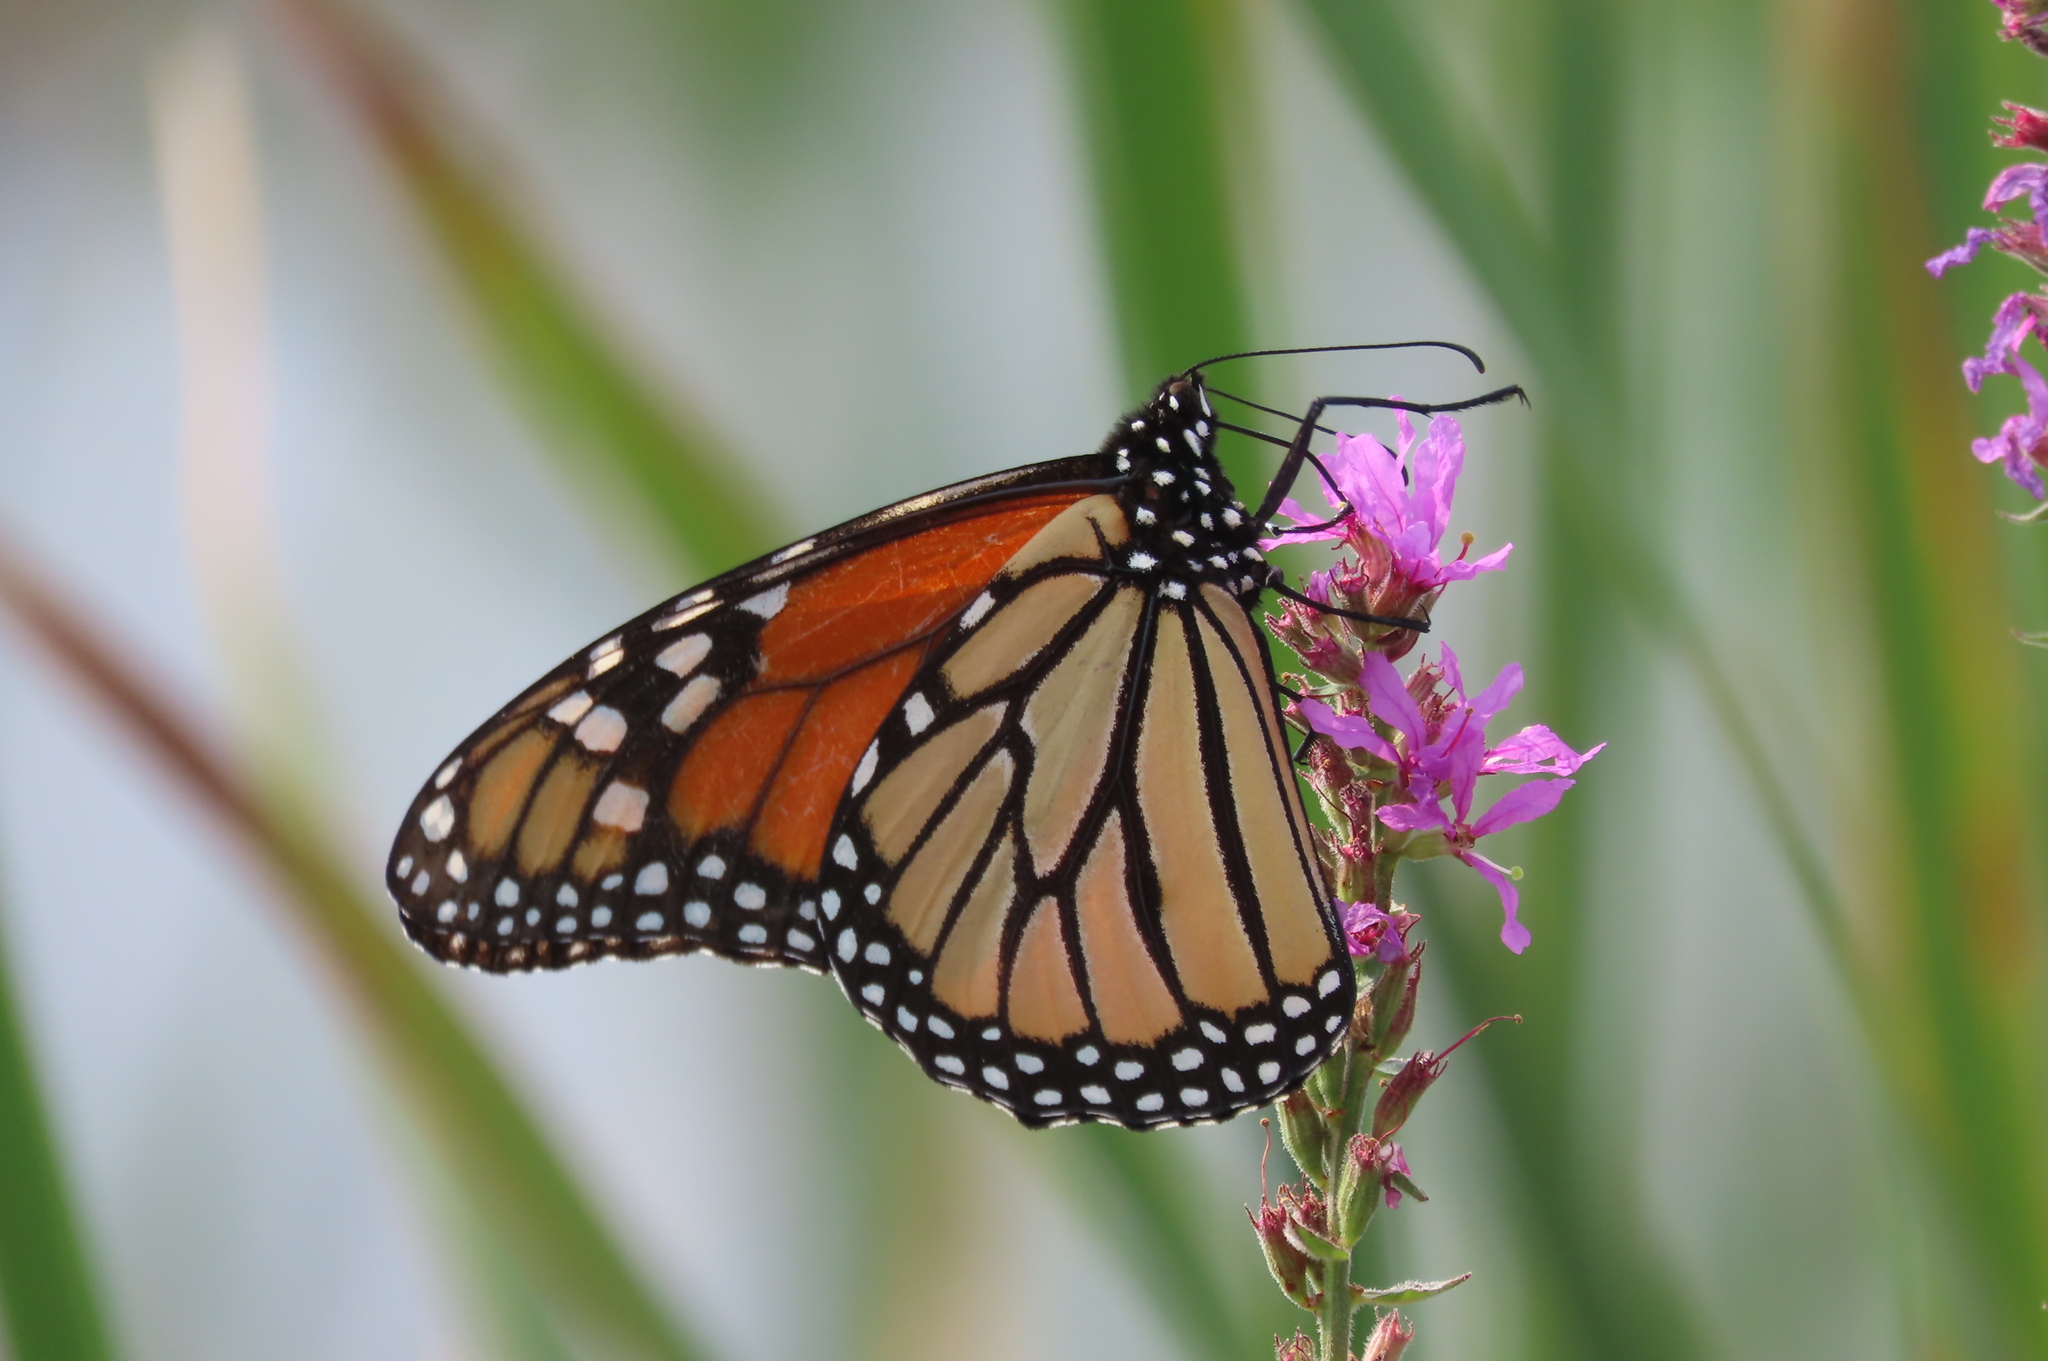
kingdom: Animalia
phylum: Arthropoda
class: Insecta
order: Lepidoptera
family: Nymphalidae
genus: Danaus
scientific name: Danaus plexippus
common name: Monarch
